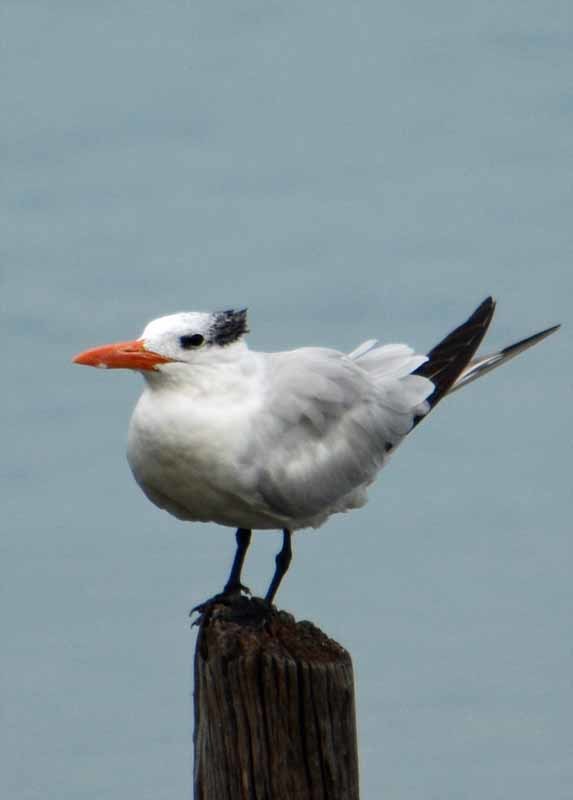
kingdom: Animalia
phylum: Chordata
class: Aves
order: Charadriiformes
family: Laridae
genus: Thalasseus
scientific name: Thalasseus maximus
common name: Royal tern
